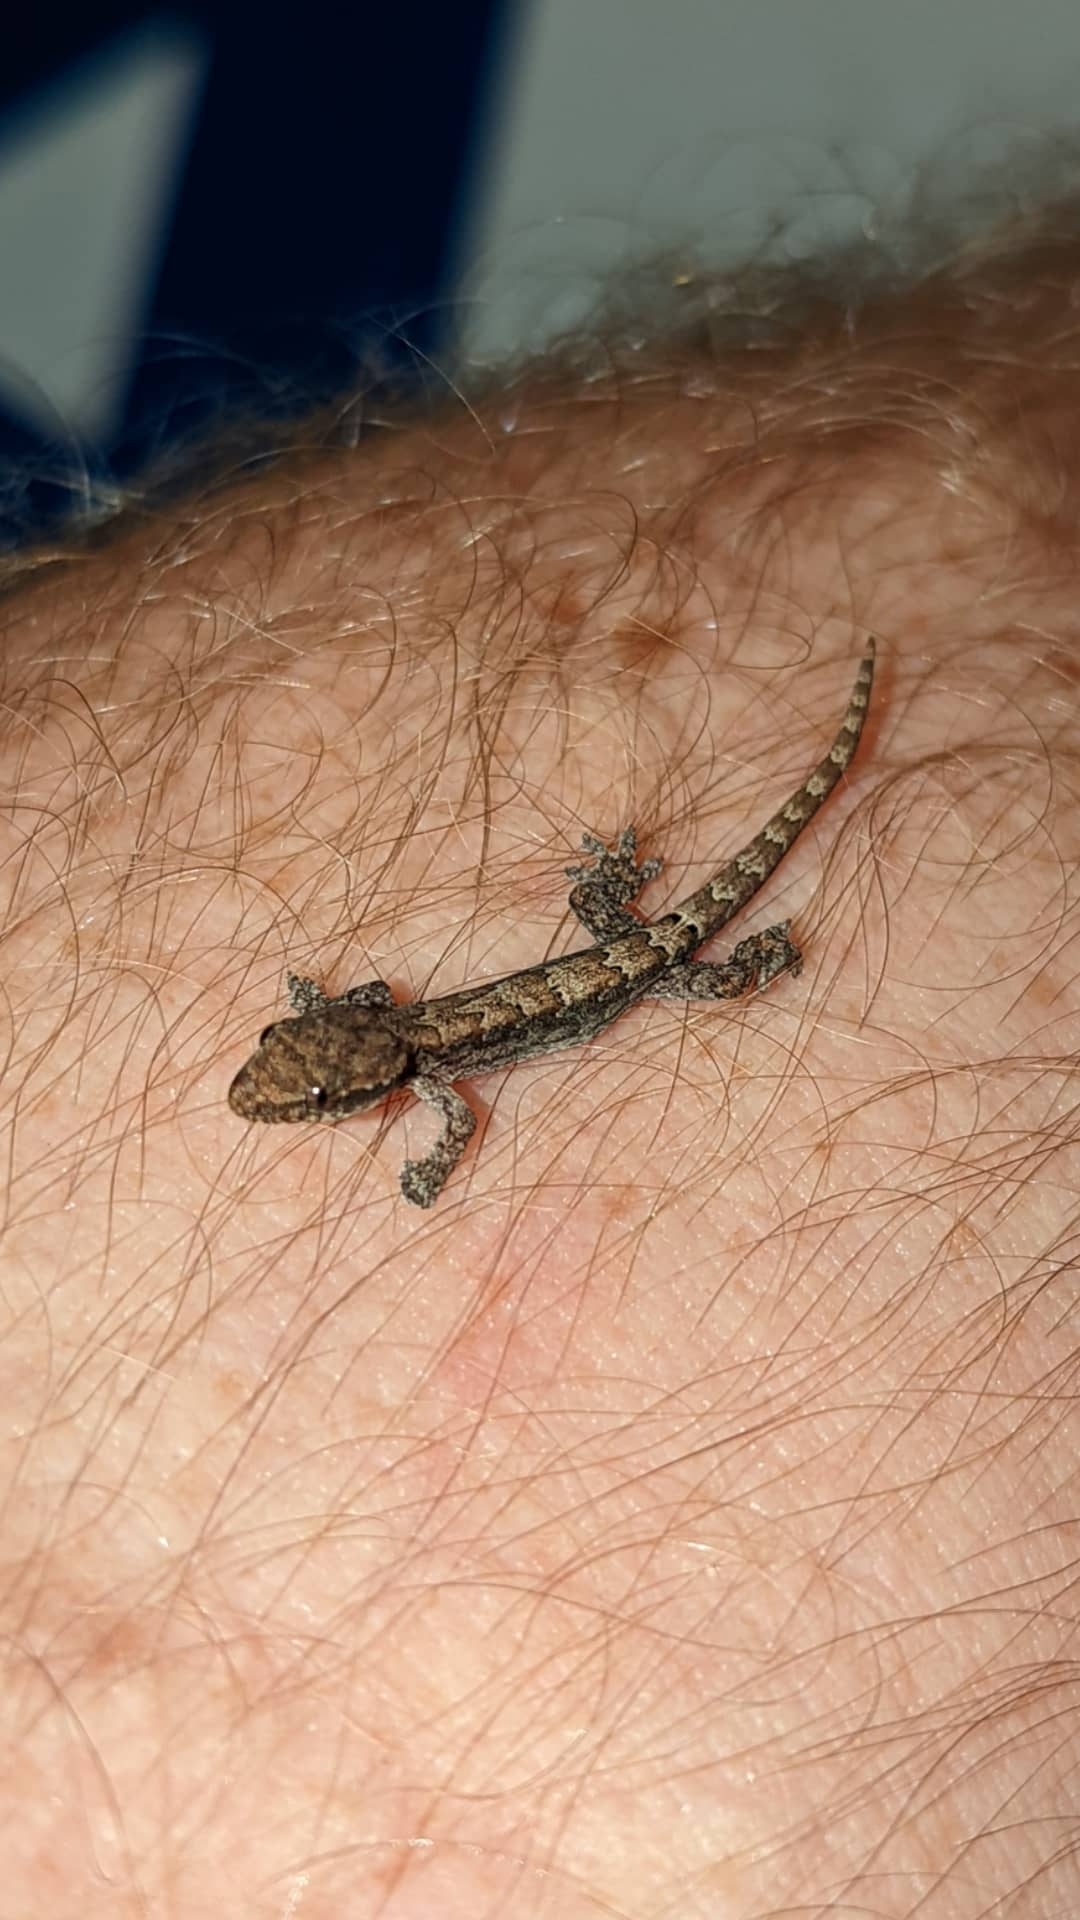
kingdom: Animalia
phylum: Chordata
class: Squamata
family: Gekkonidae
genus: Lepidodactylus
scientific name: Lepidodactylus lugubris
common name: Mourning gecko
